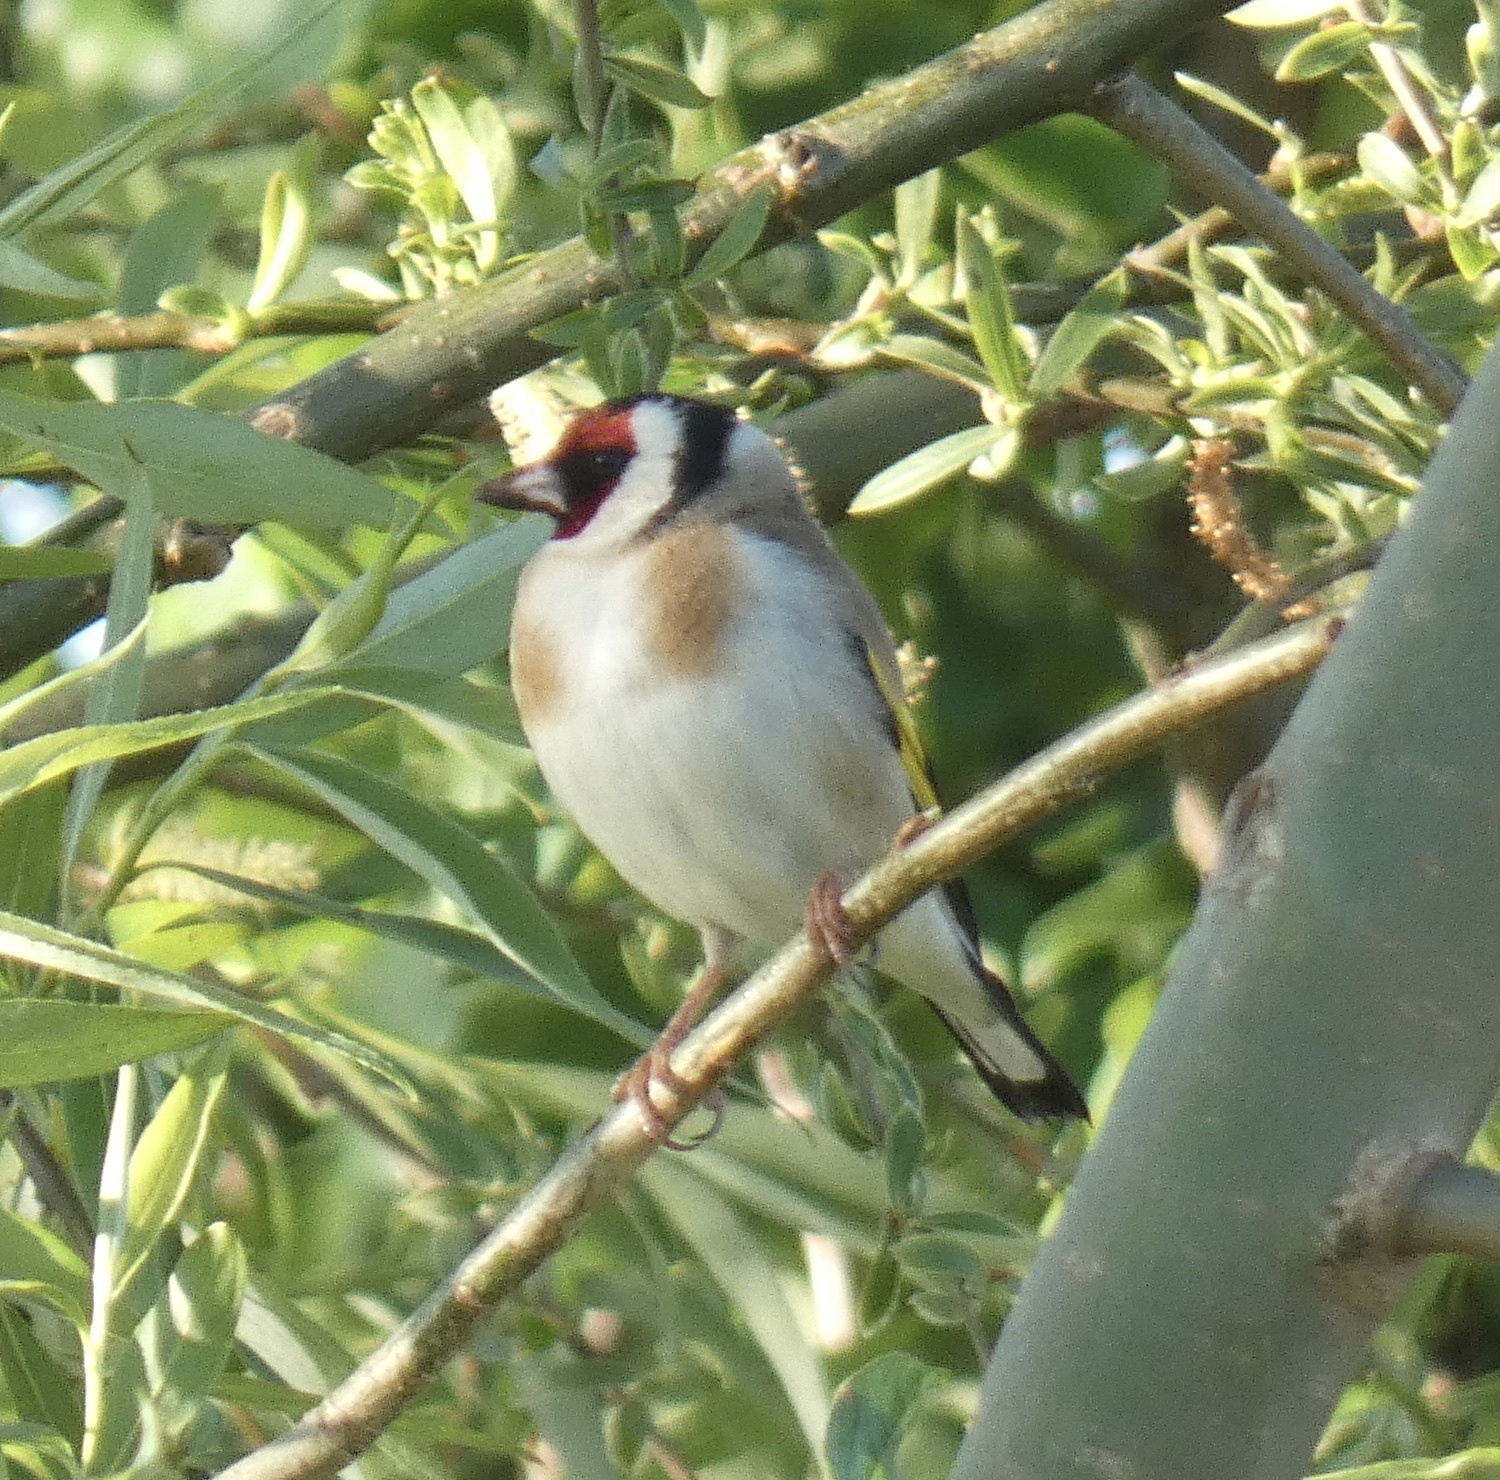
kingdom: Animalia
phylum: Chordata
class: Aves
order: Passeriformes
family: Fringillidae
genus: Carduelis
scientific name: Carduelis carduelis
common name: European goldfinch
